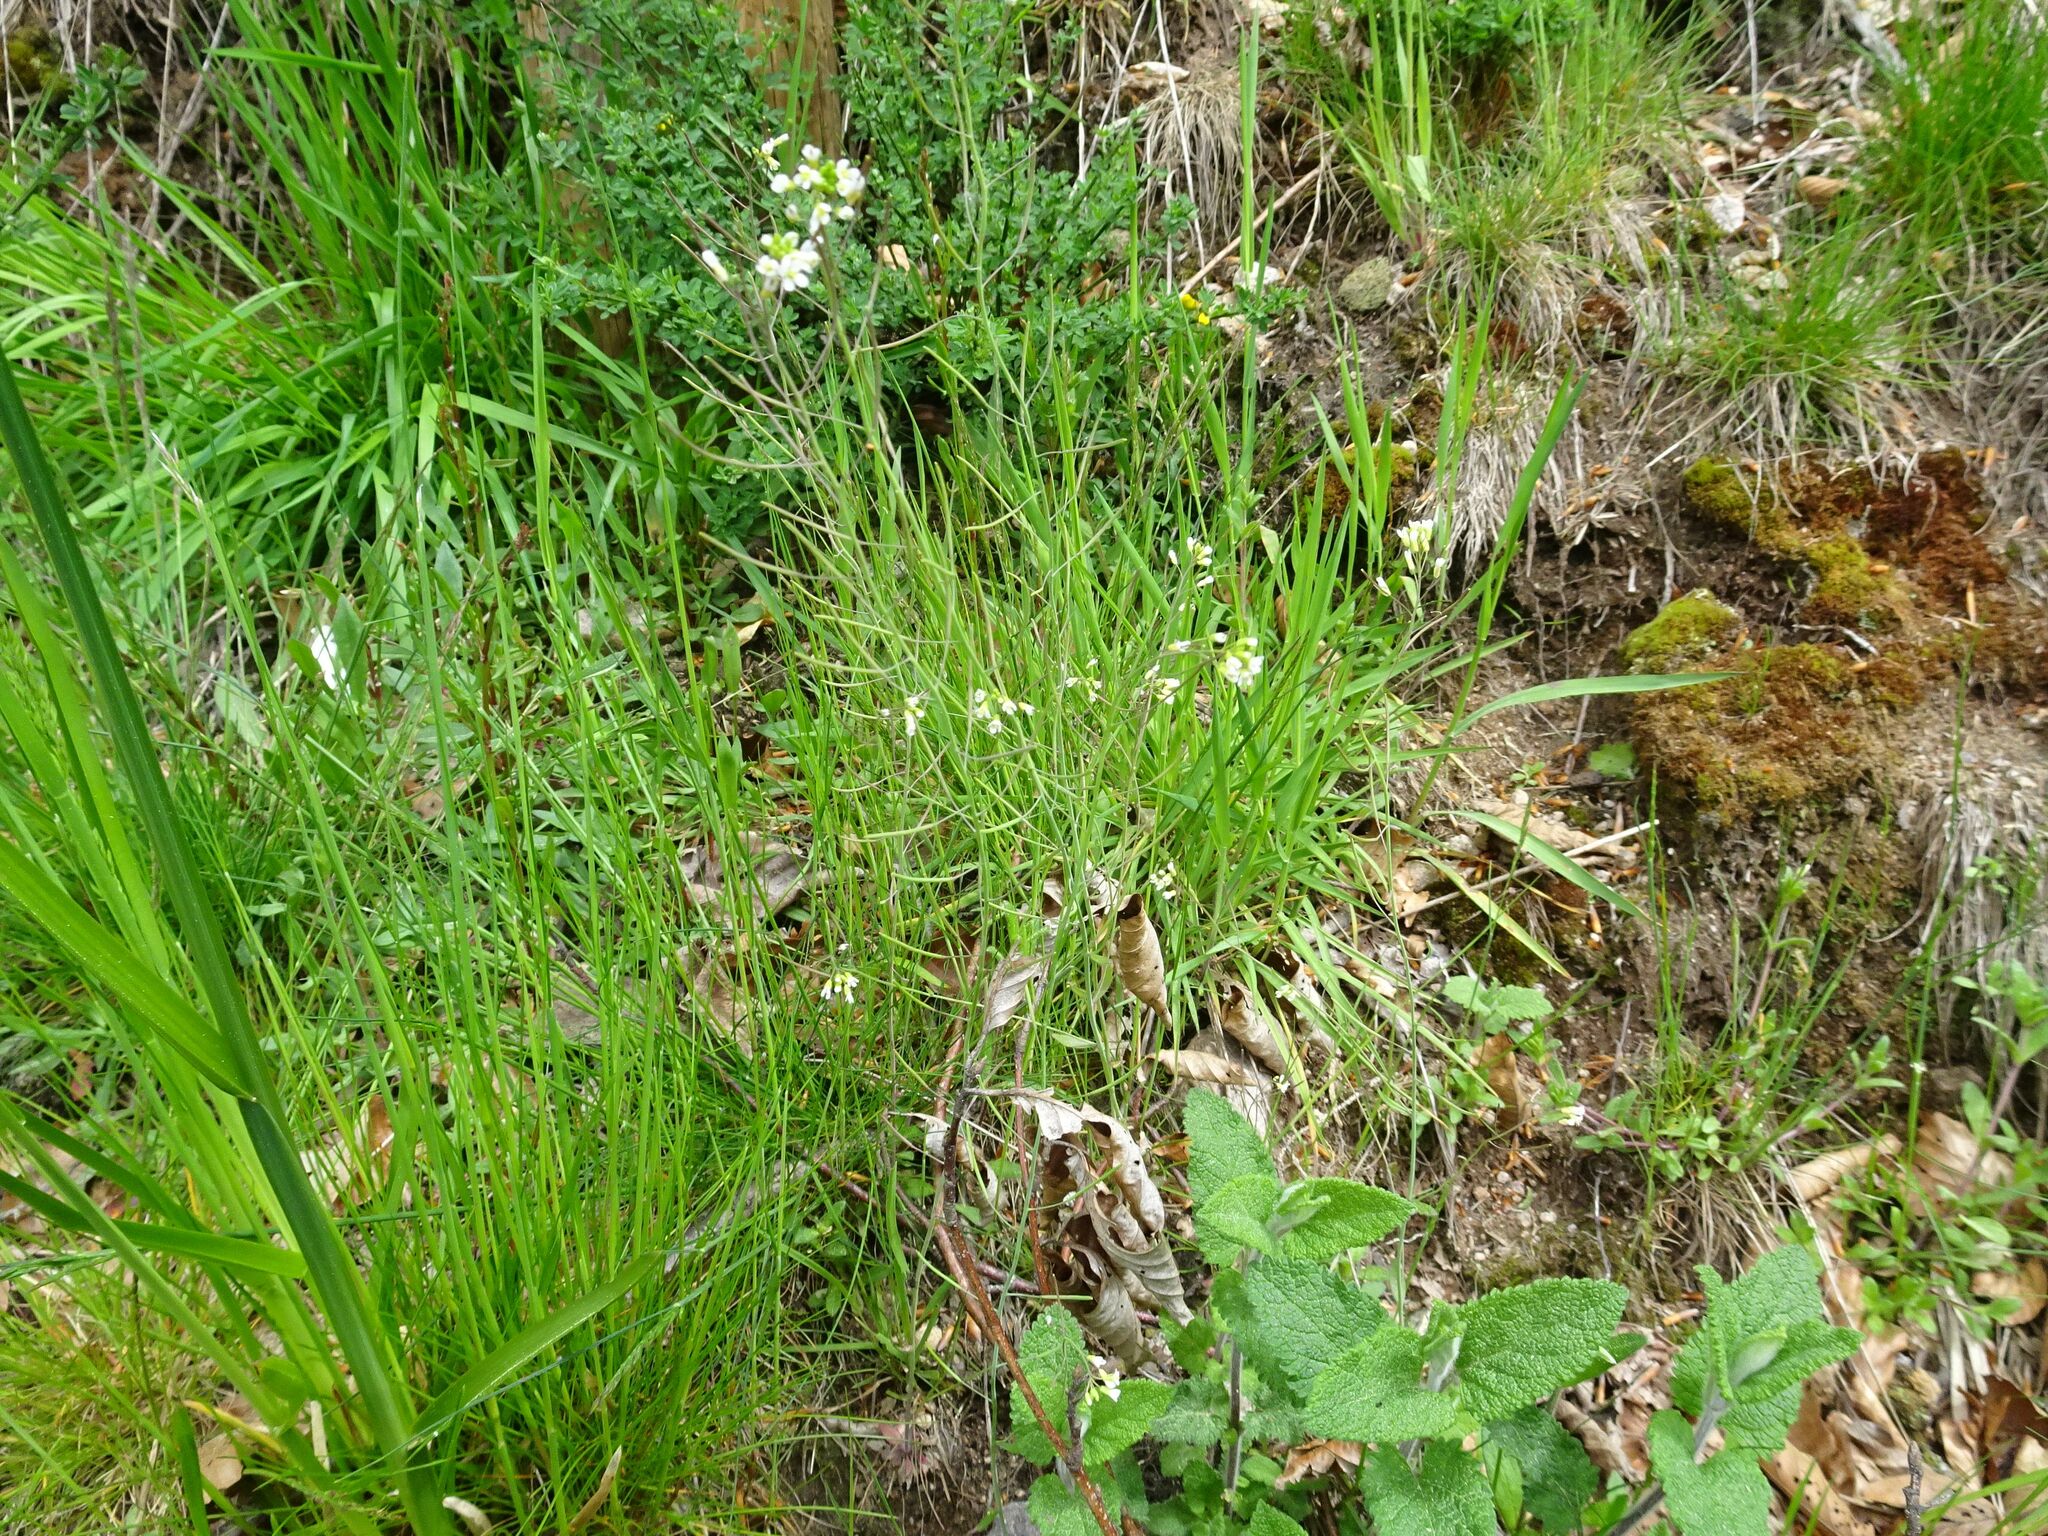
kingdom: Plantae
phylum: Tracheophyta
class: Magnoliopsida
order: Brassicales
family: Brassicaceae
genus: Arabidopsis
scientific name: Arabidopsis thaliana
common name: Thale cress
